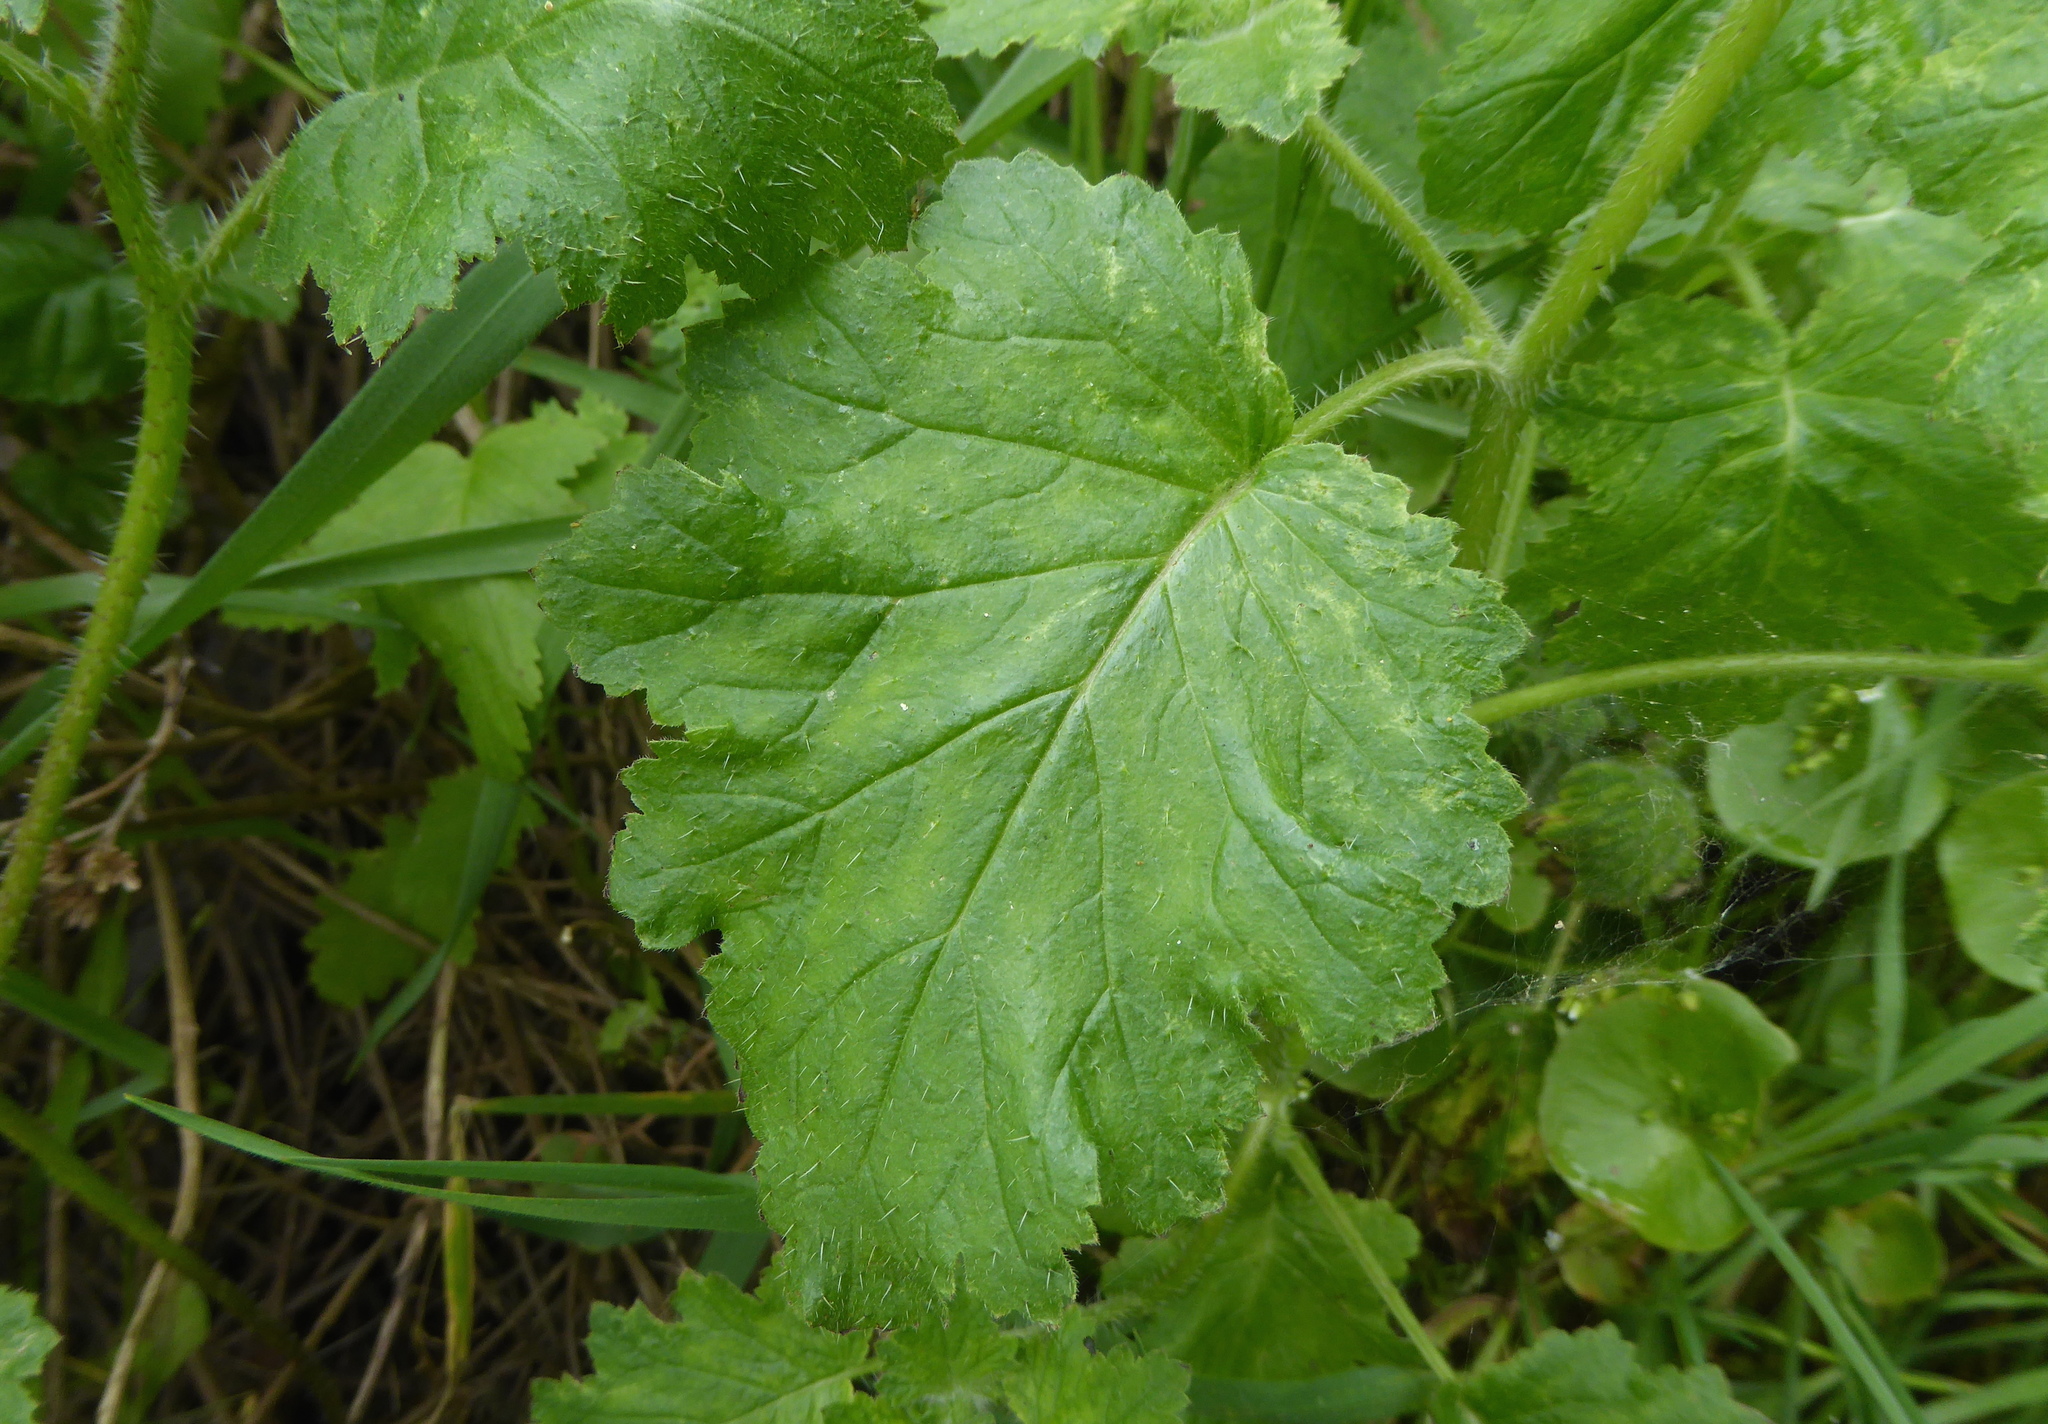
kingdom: Plantae
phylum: Tracheophyta
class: Magnoliopsida
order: Boraginales
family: Hydrophyllaceae
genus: Phacelia
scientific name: Phacelia malvifolia
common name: Mallow-leaf phacelia
